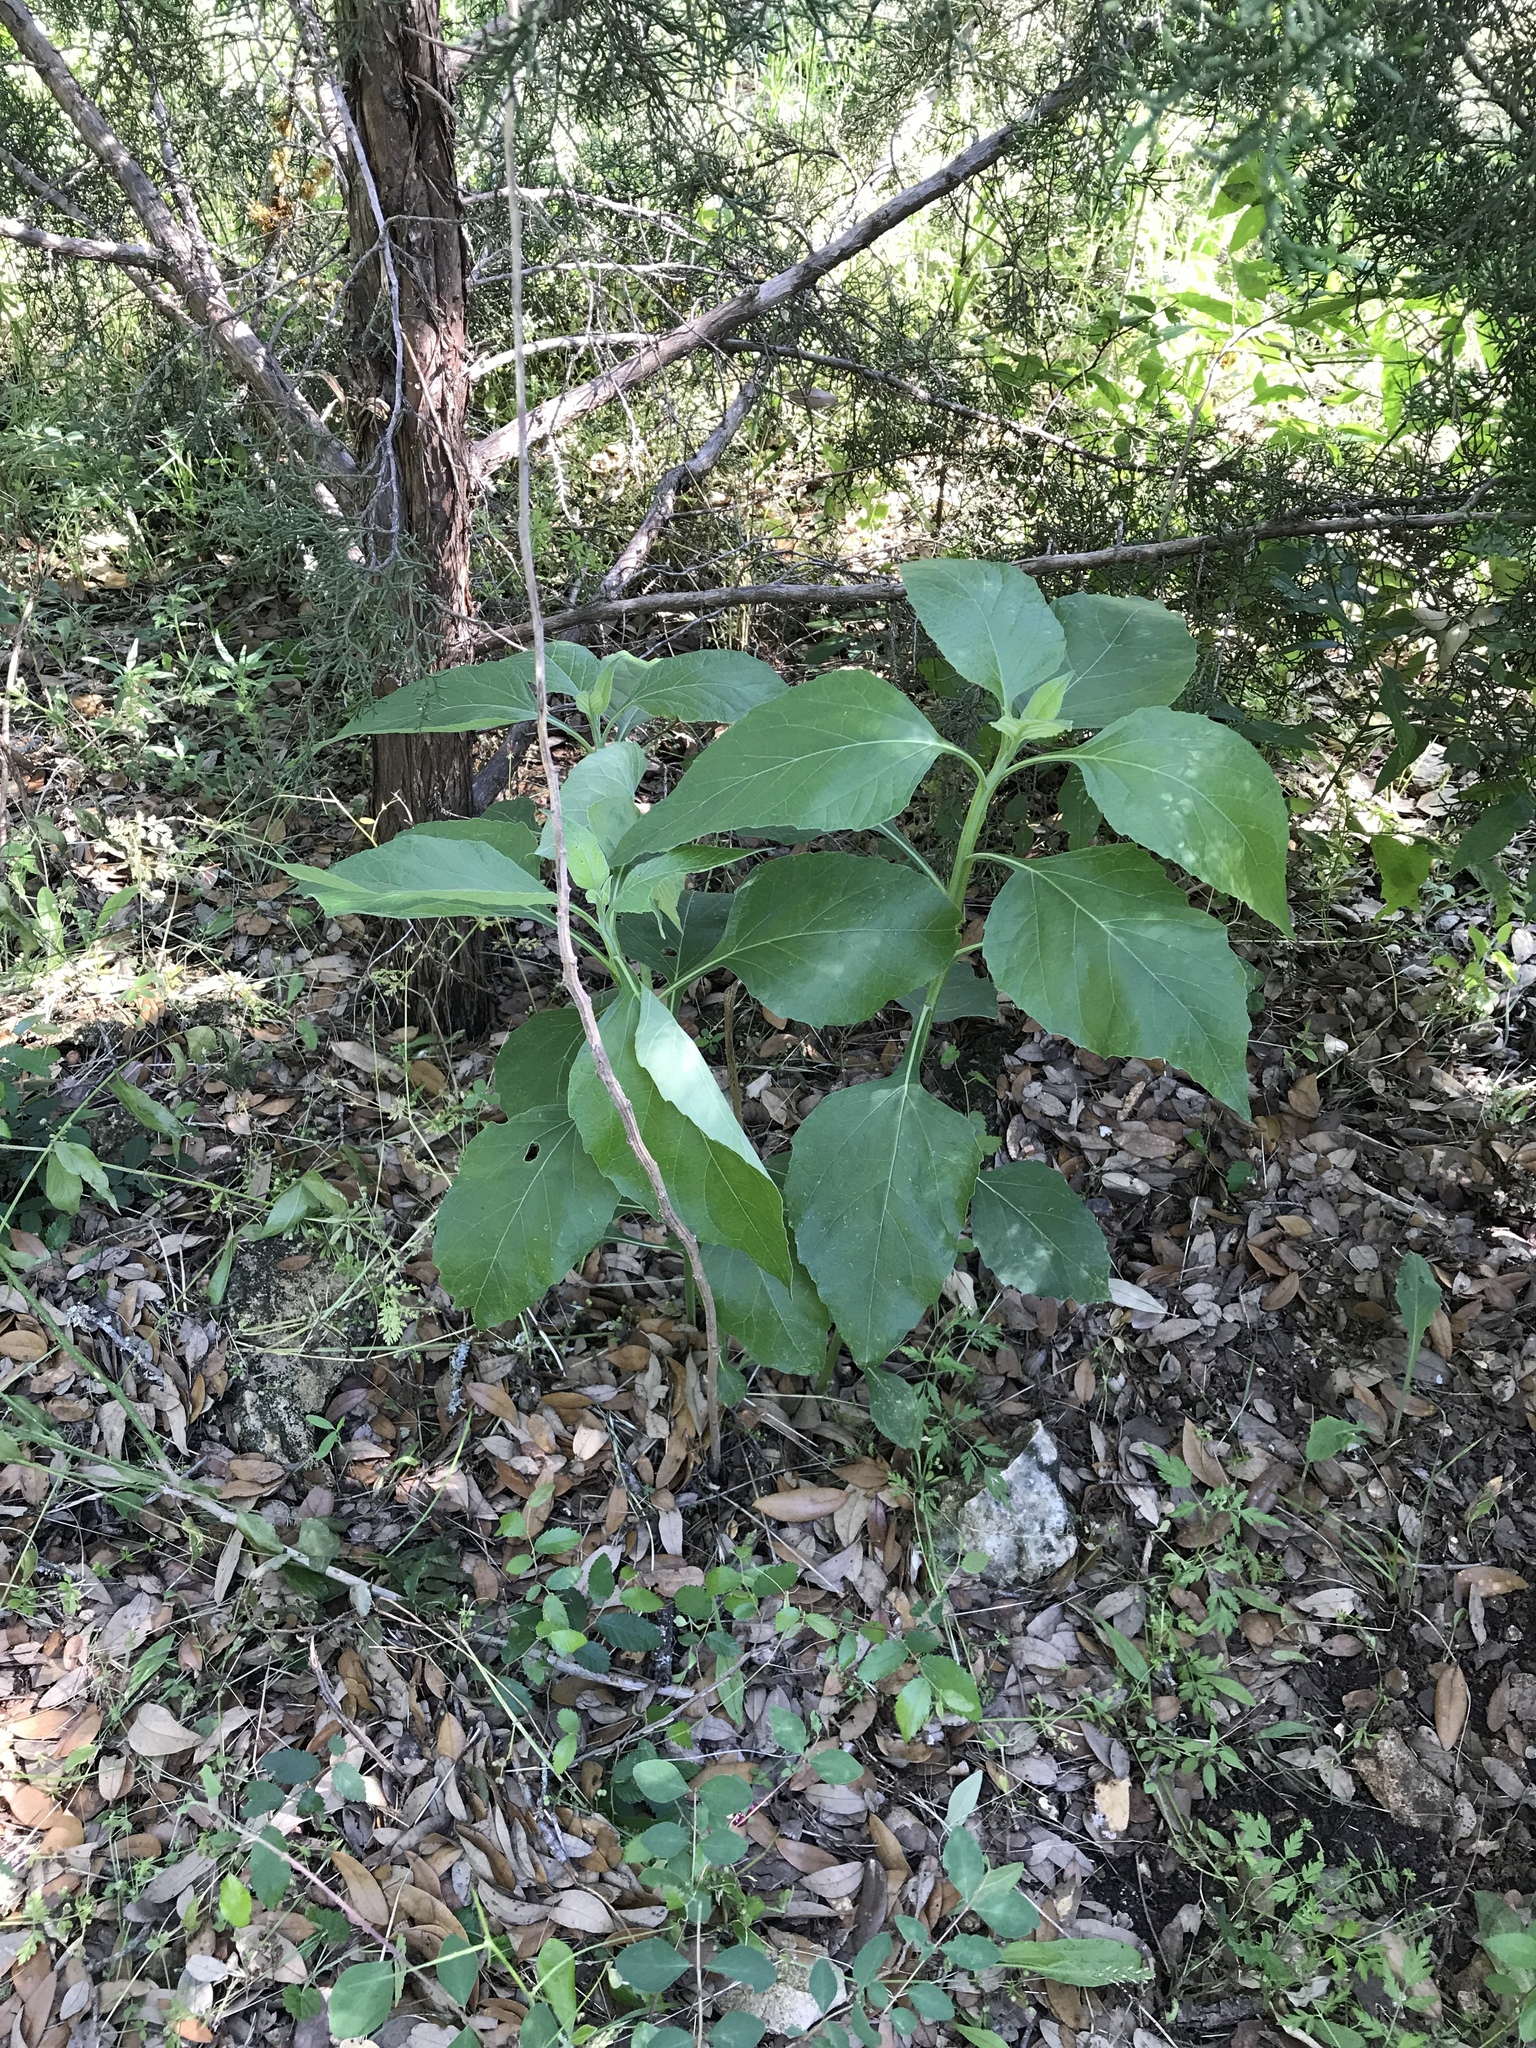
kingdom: Plantae
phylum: Tracheophyta
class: Magnoliopsida
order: Asterales
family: Asteraceae
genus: Verbesina
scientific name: Verbesina virginica
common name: Frostweed
